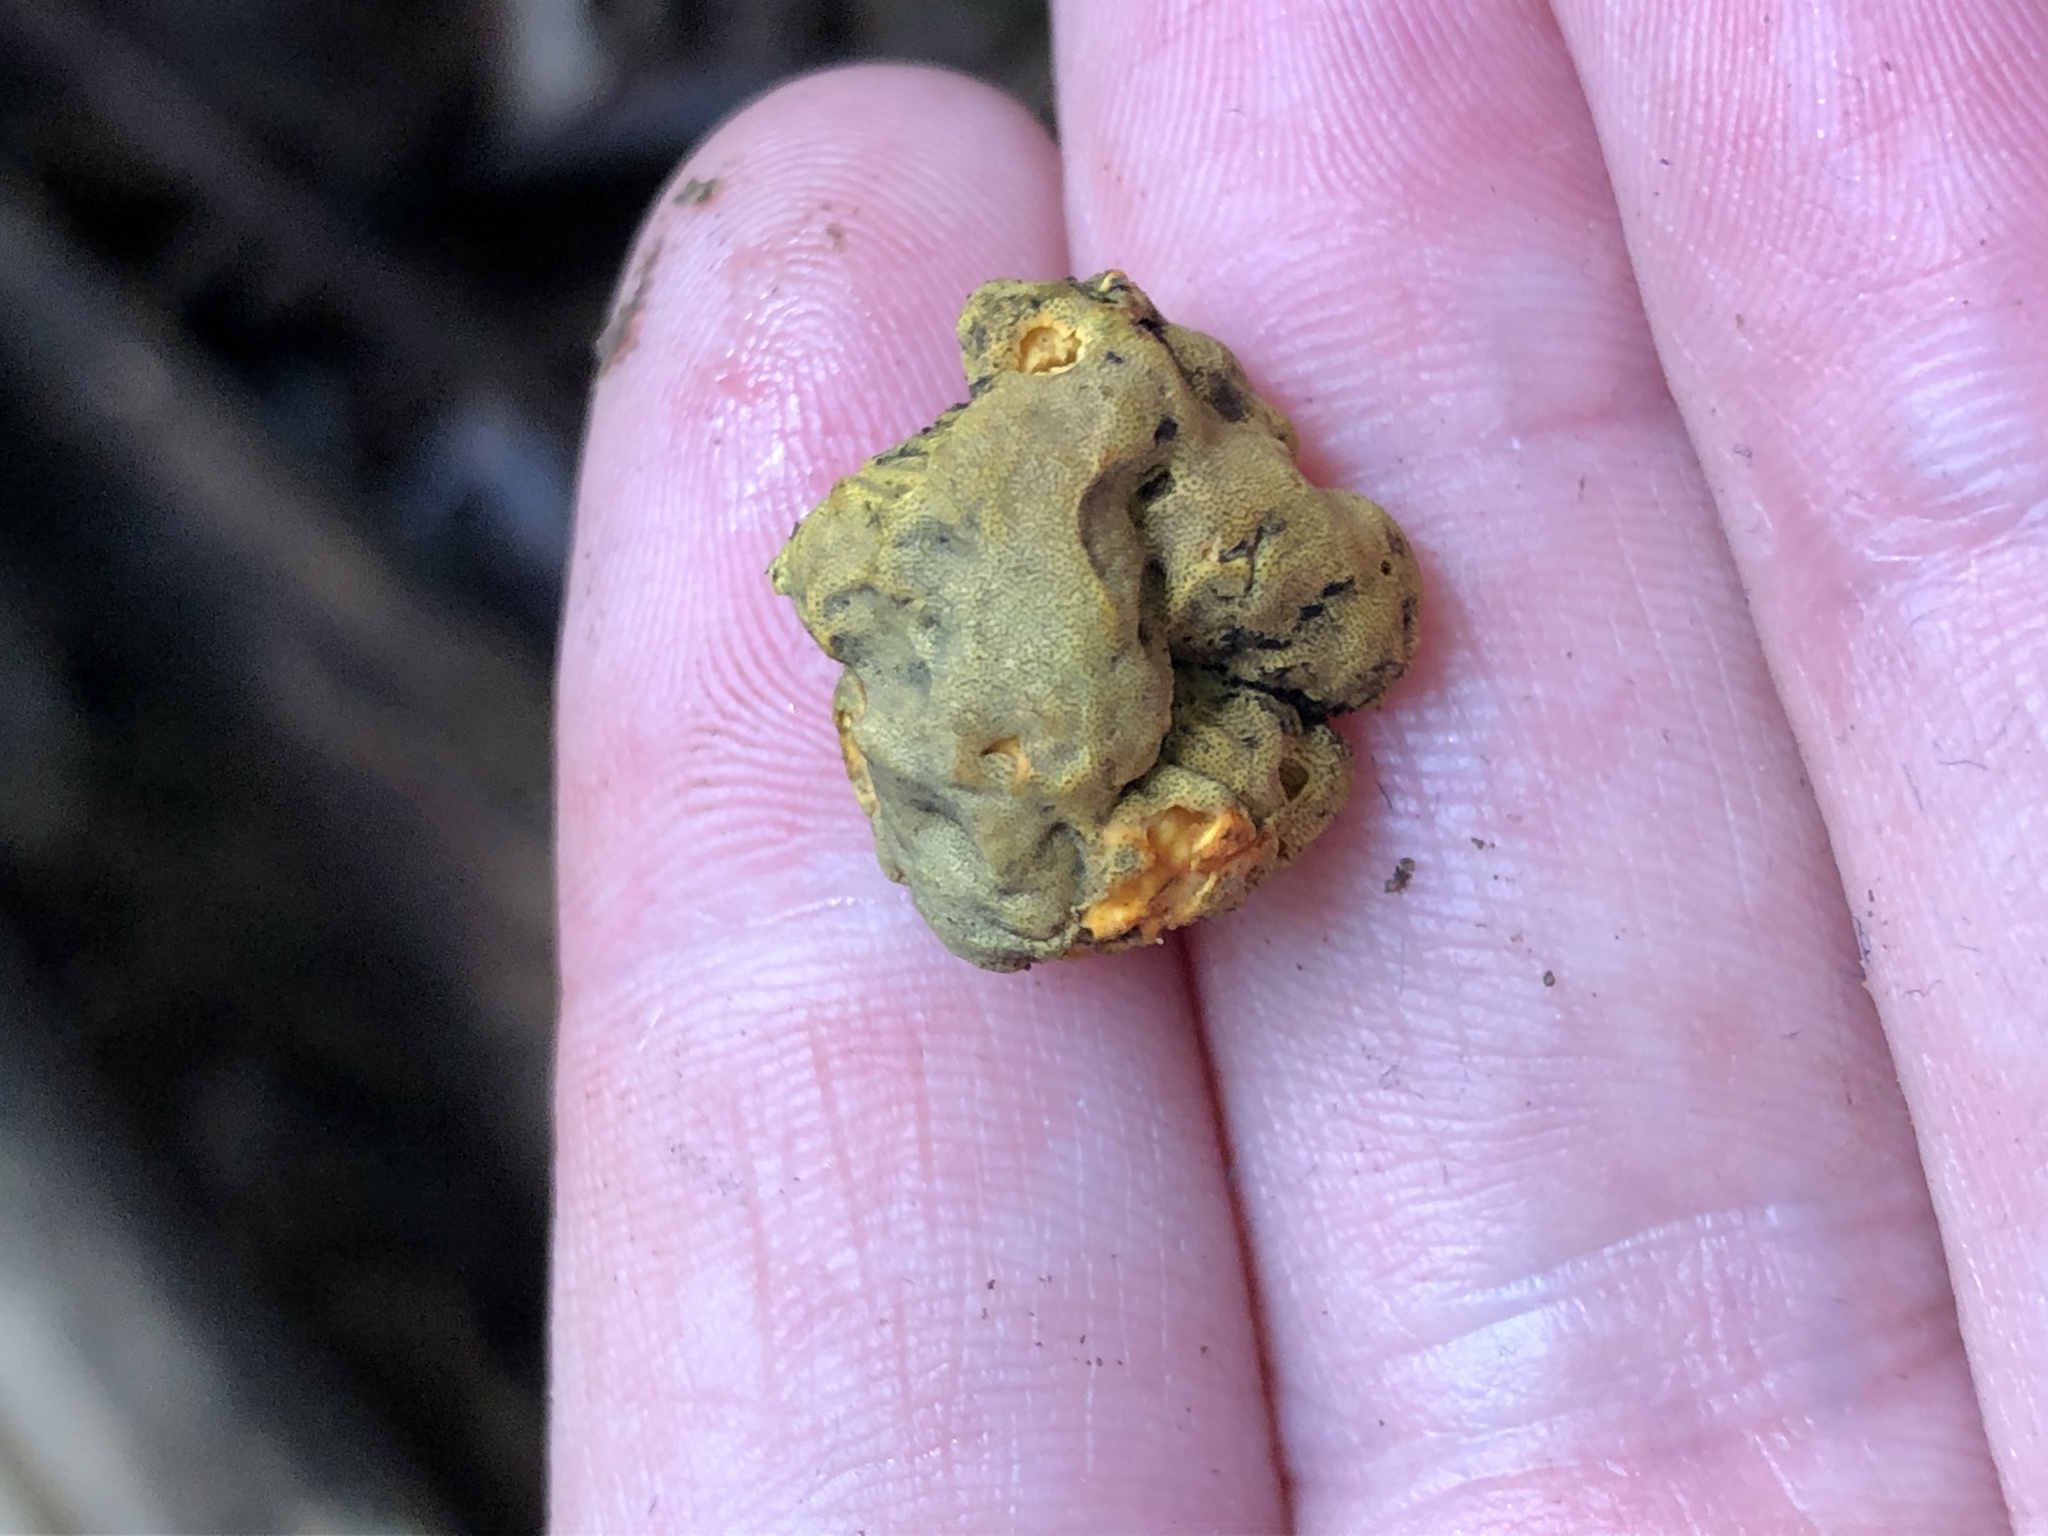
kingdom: Fungi
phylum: Ascomycota
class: Sordariomycetes
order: Xylariales
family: Hypoxylaceae
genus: Thuemenella
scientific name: Thuemenella cubispora
